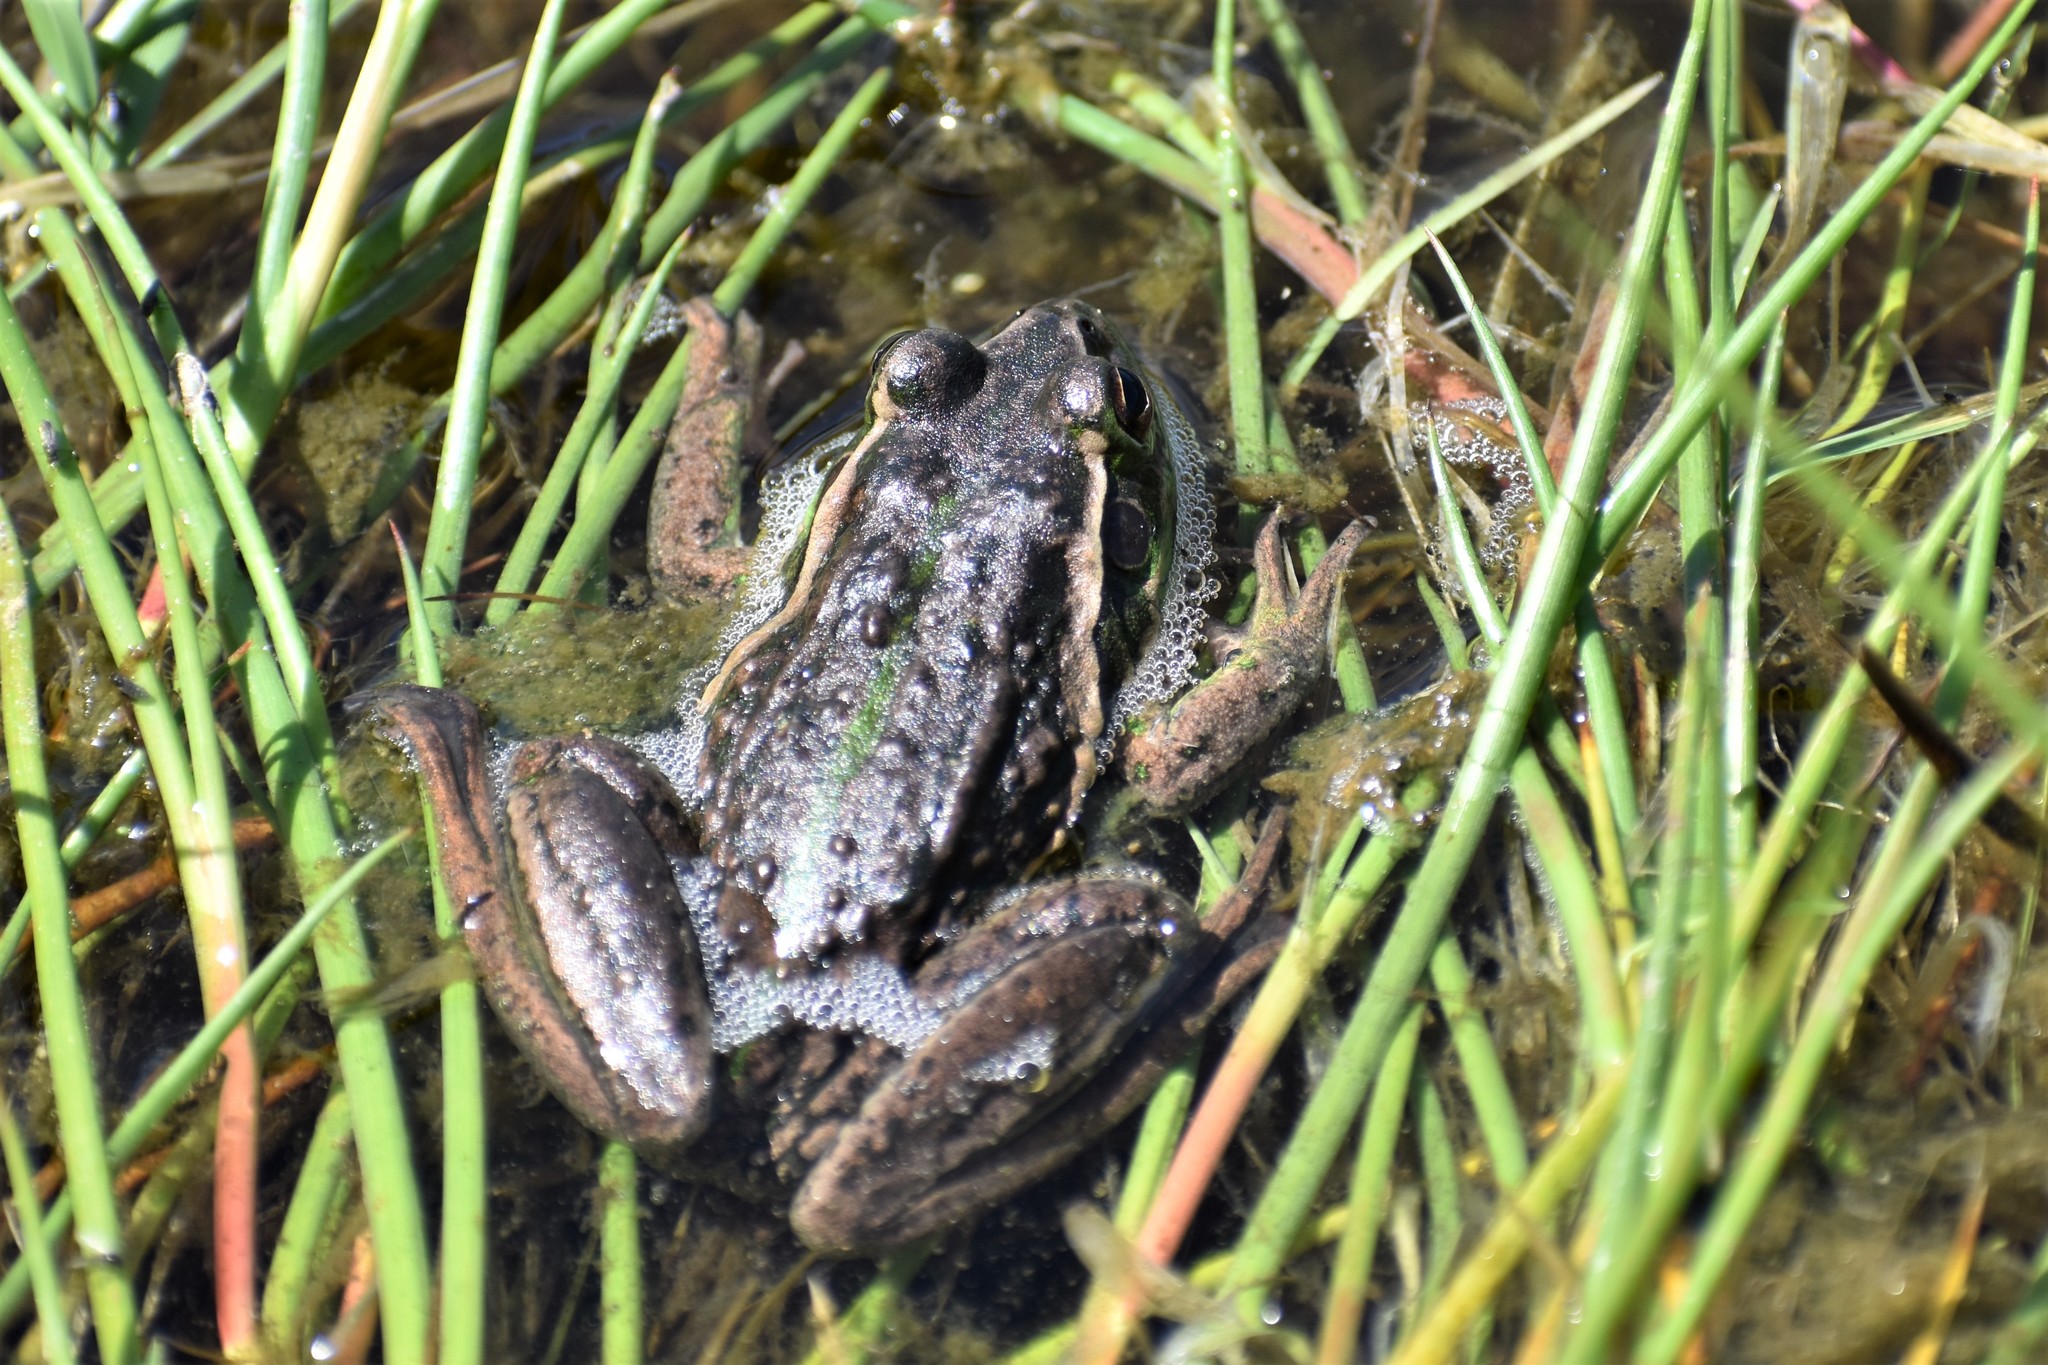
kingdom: Animalia
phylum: Chordata
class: Amphibia
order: Anura
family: Pelodryadidae
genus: Ranoidea
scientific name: Ranoidea raniformis
